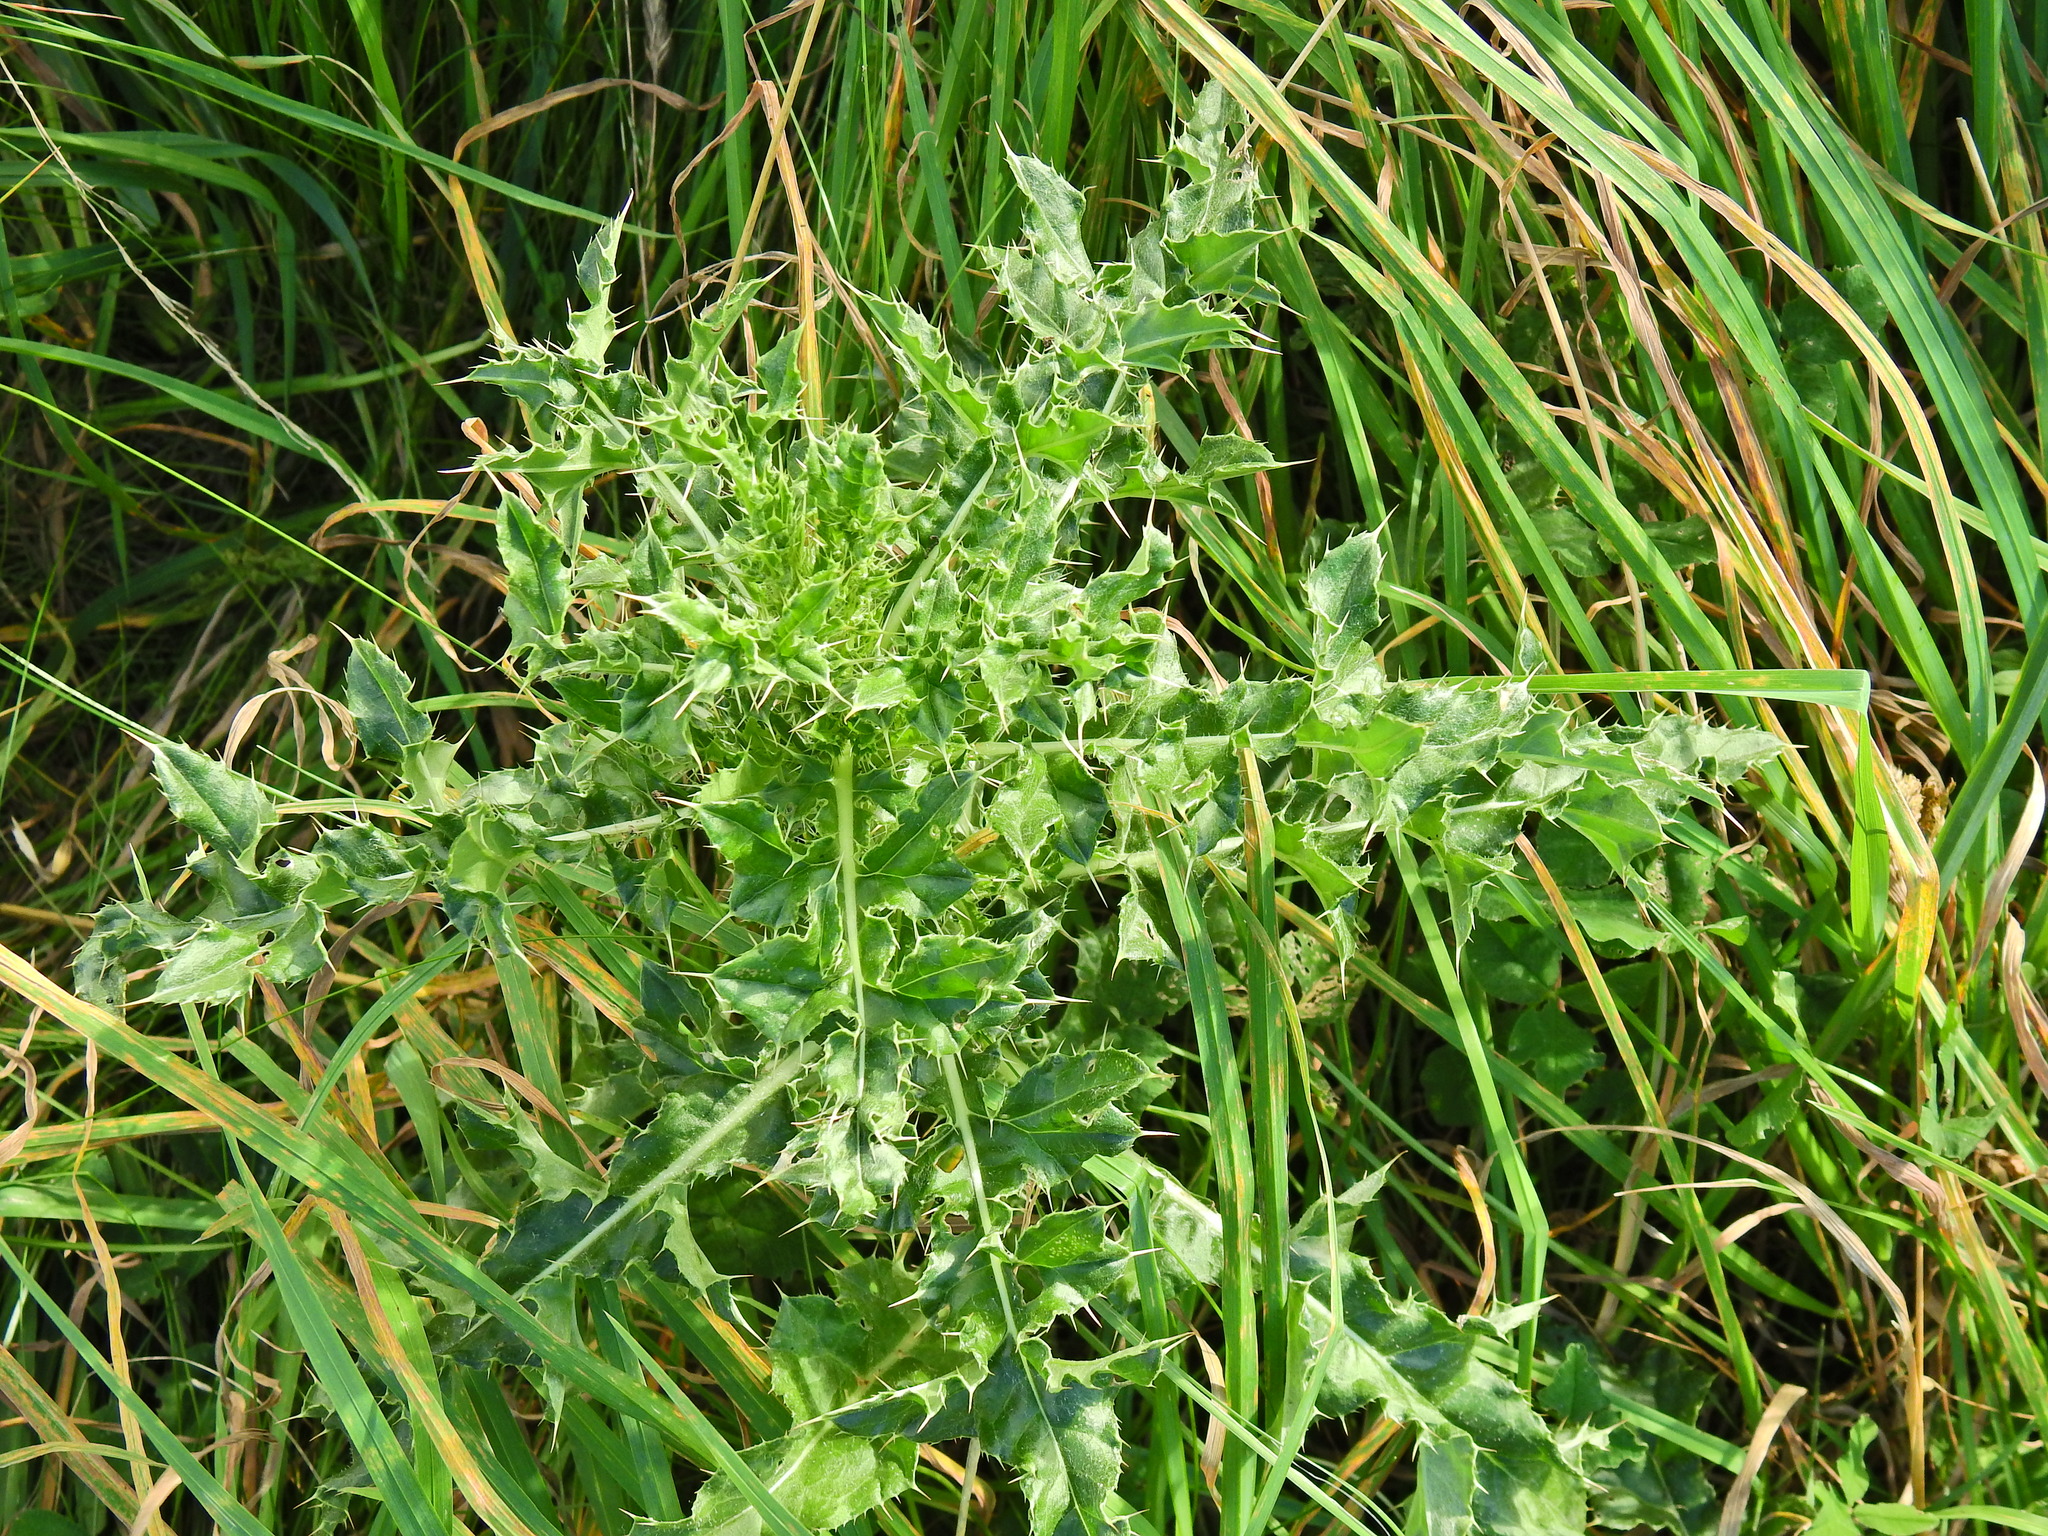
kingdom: Plantae
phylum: Tracheophyta
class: Magnoliopsida
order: Asterales
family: Asteraceae
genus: Cirsium
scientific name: Cirsium arvense
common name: Creeping thistle
